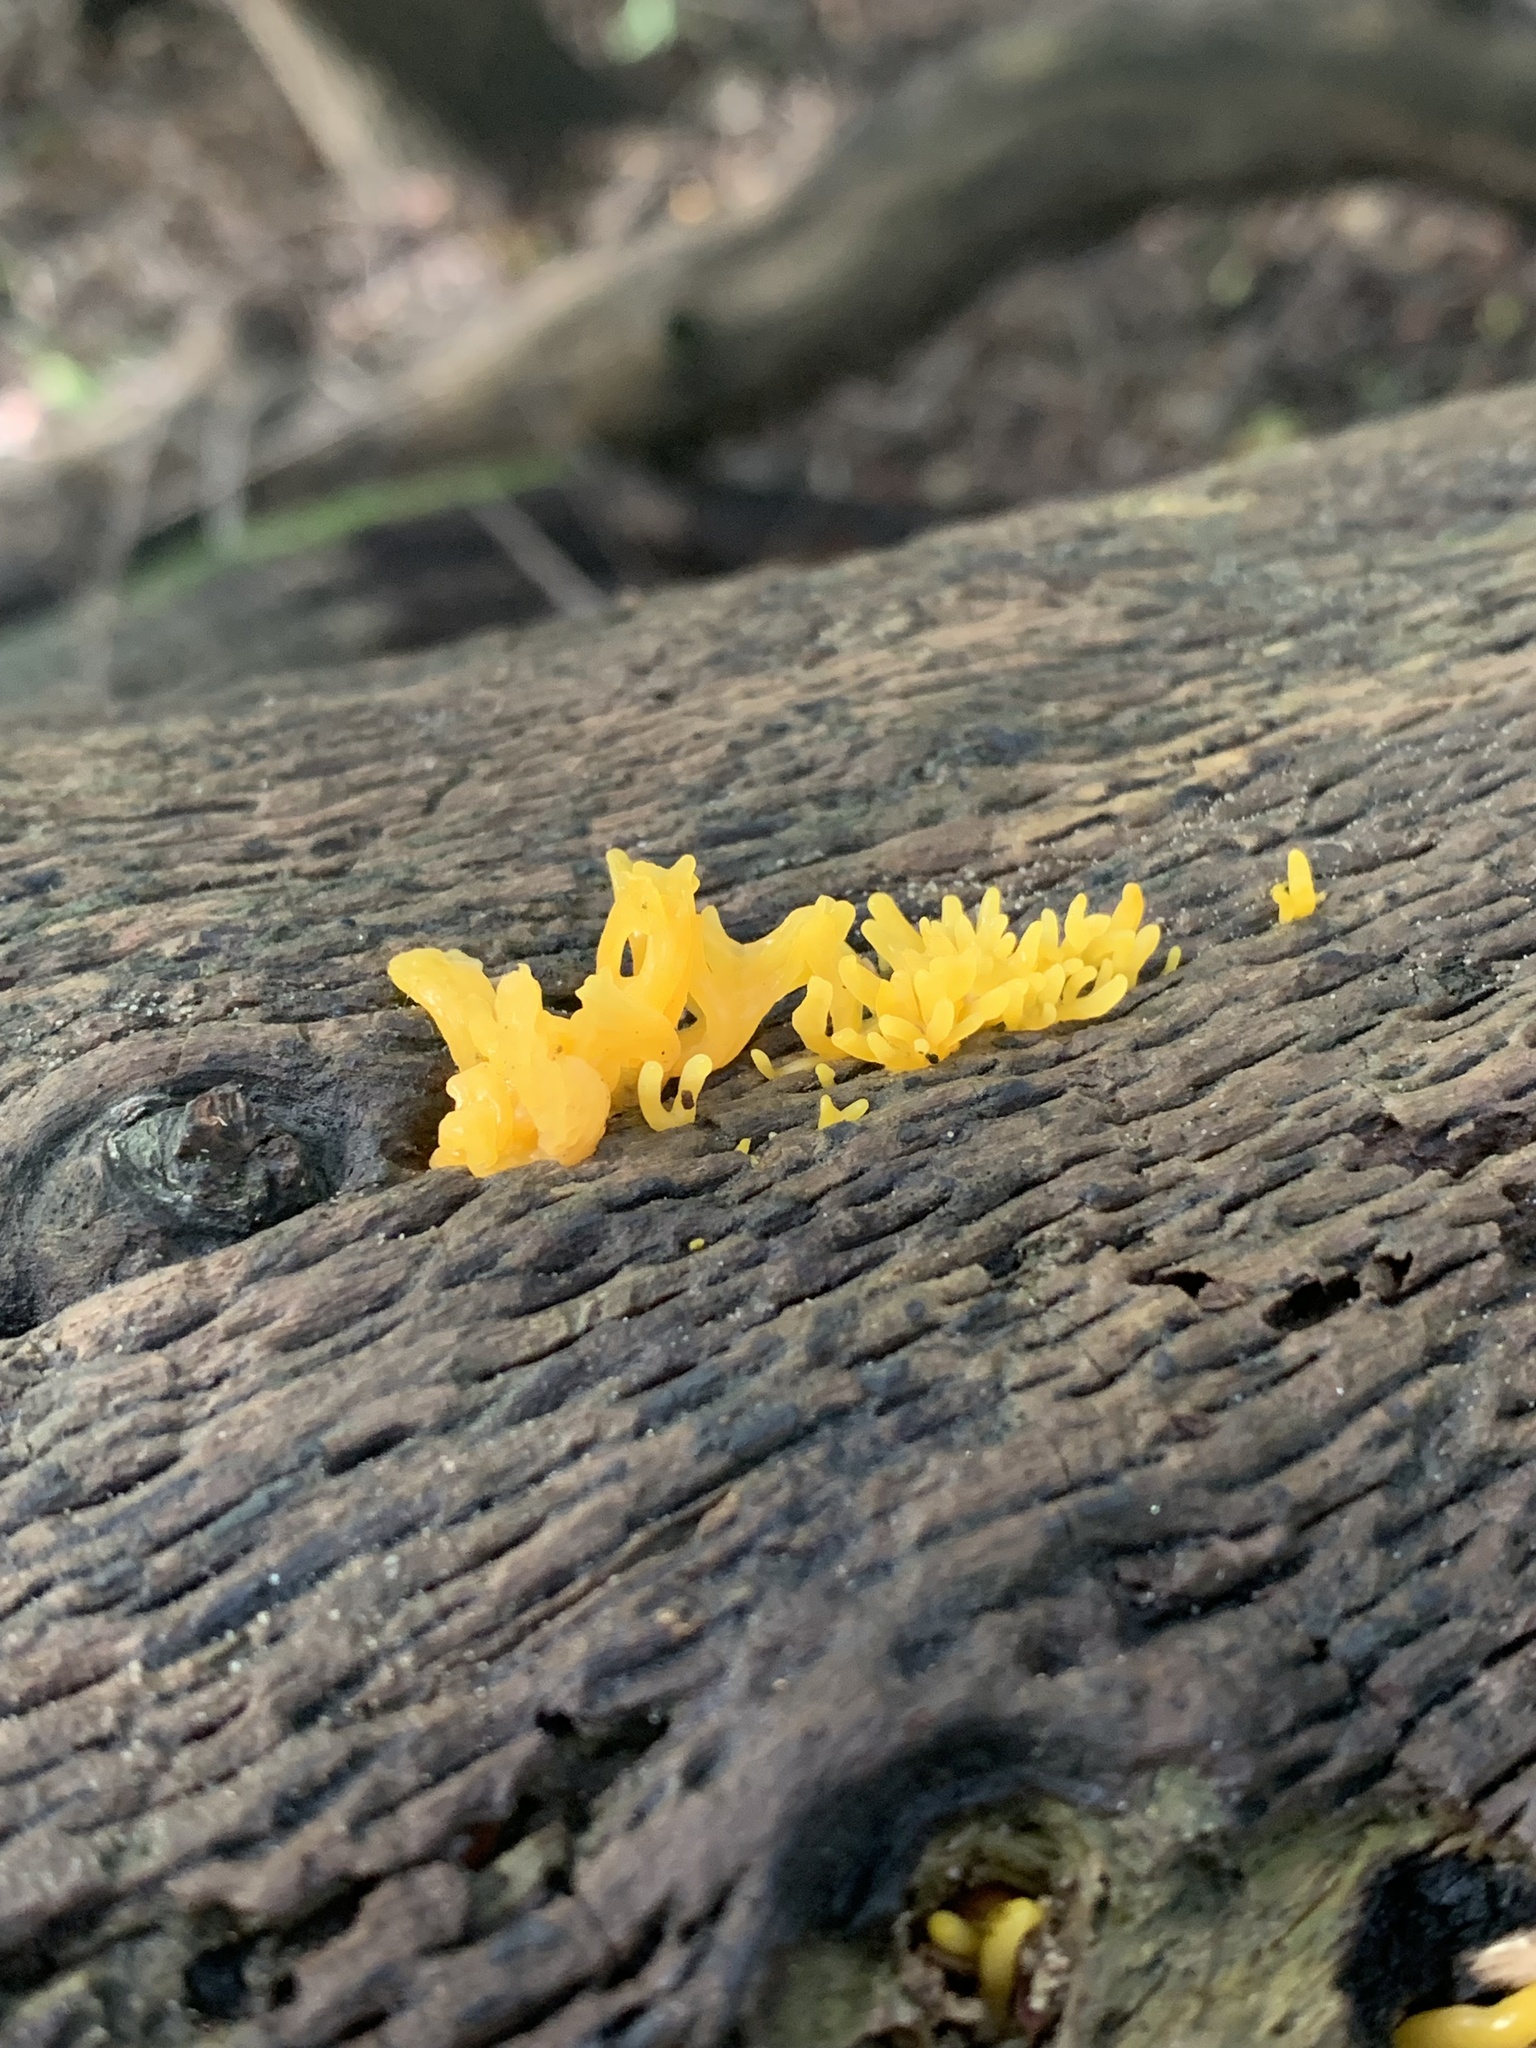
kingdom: Fungi
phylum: Basidiomycota
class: Dacrymycetes
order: Dacrymycetales
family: Dacrymycetaceae
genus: Calocera
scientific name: Calocera cornea
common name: Small stagshorn
